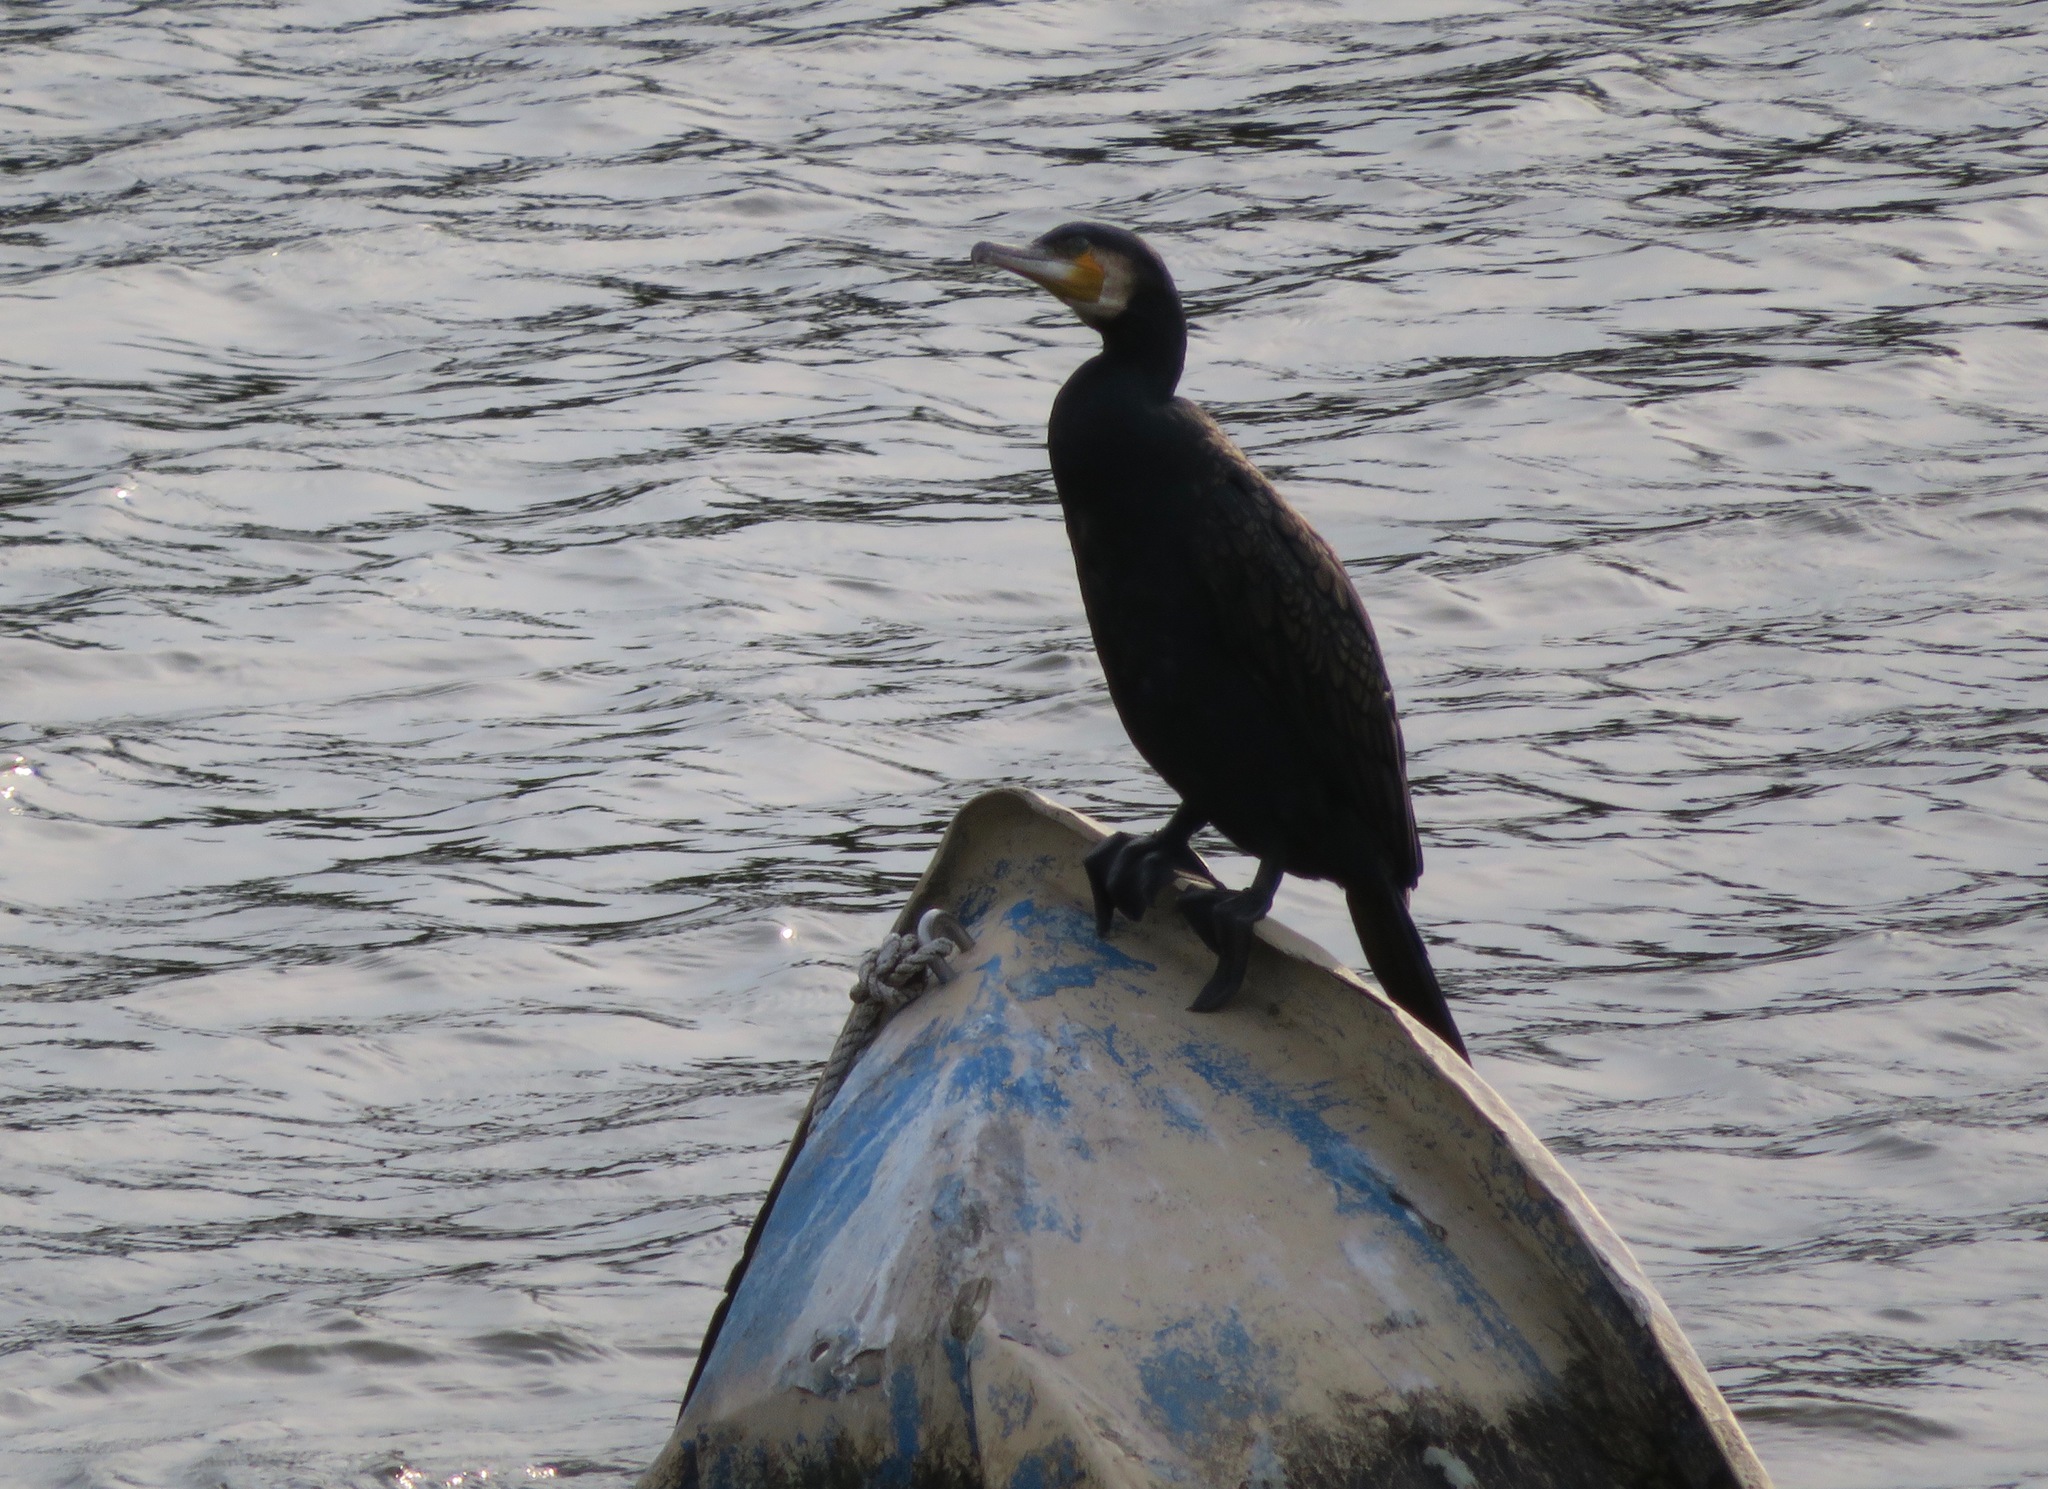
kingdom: Animalia
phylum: Chordata
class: Aves
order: Suliformes
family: Phalacrocoracidae
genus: Phalacrocorax
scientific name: Phalacrocorax carbo
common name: Great cormorant
